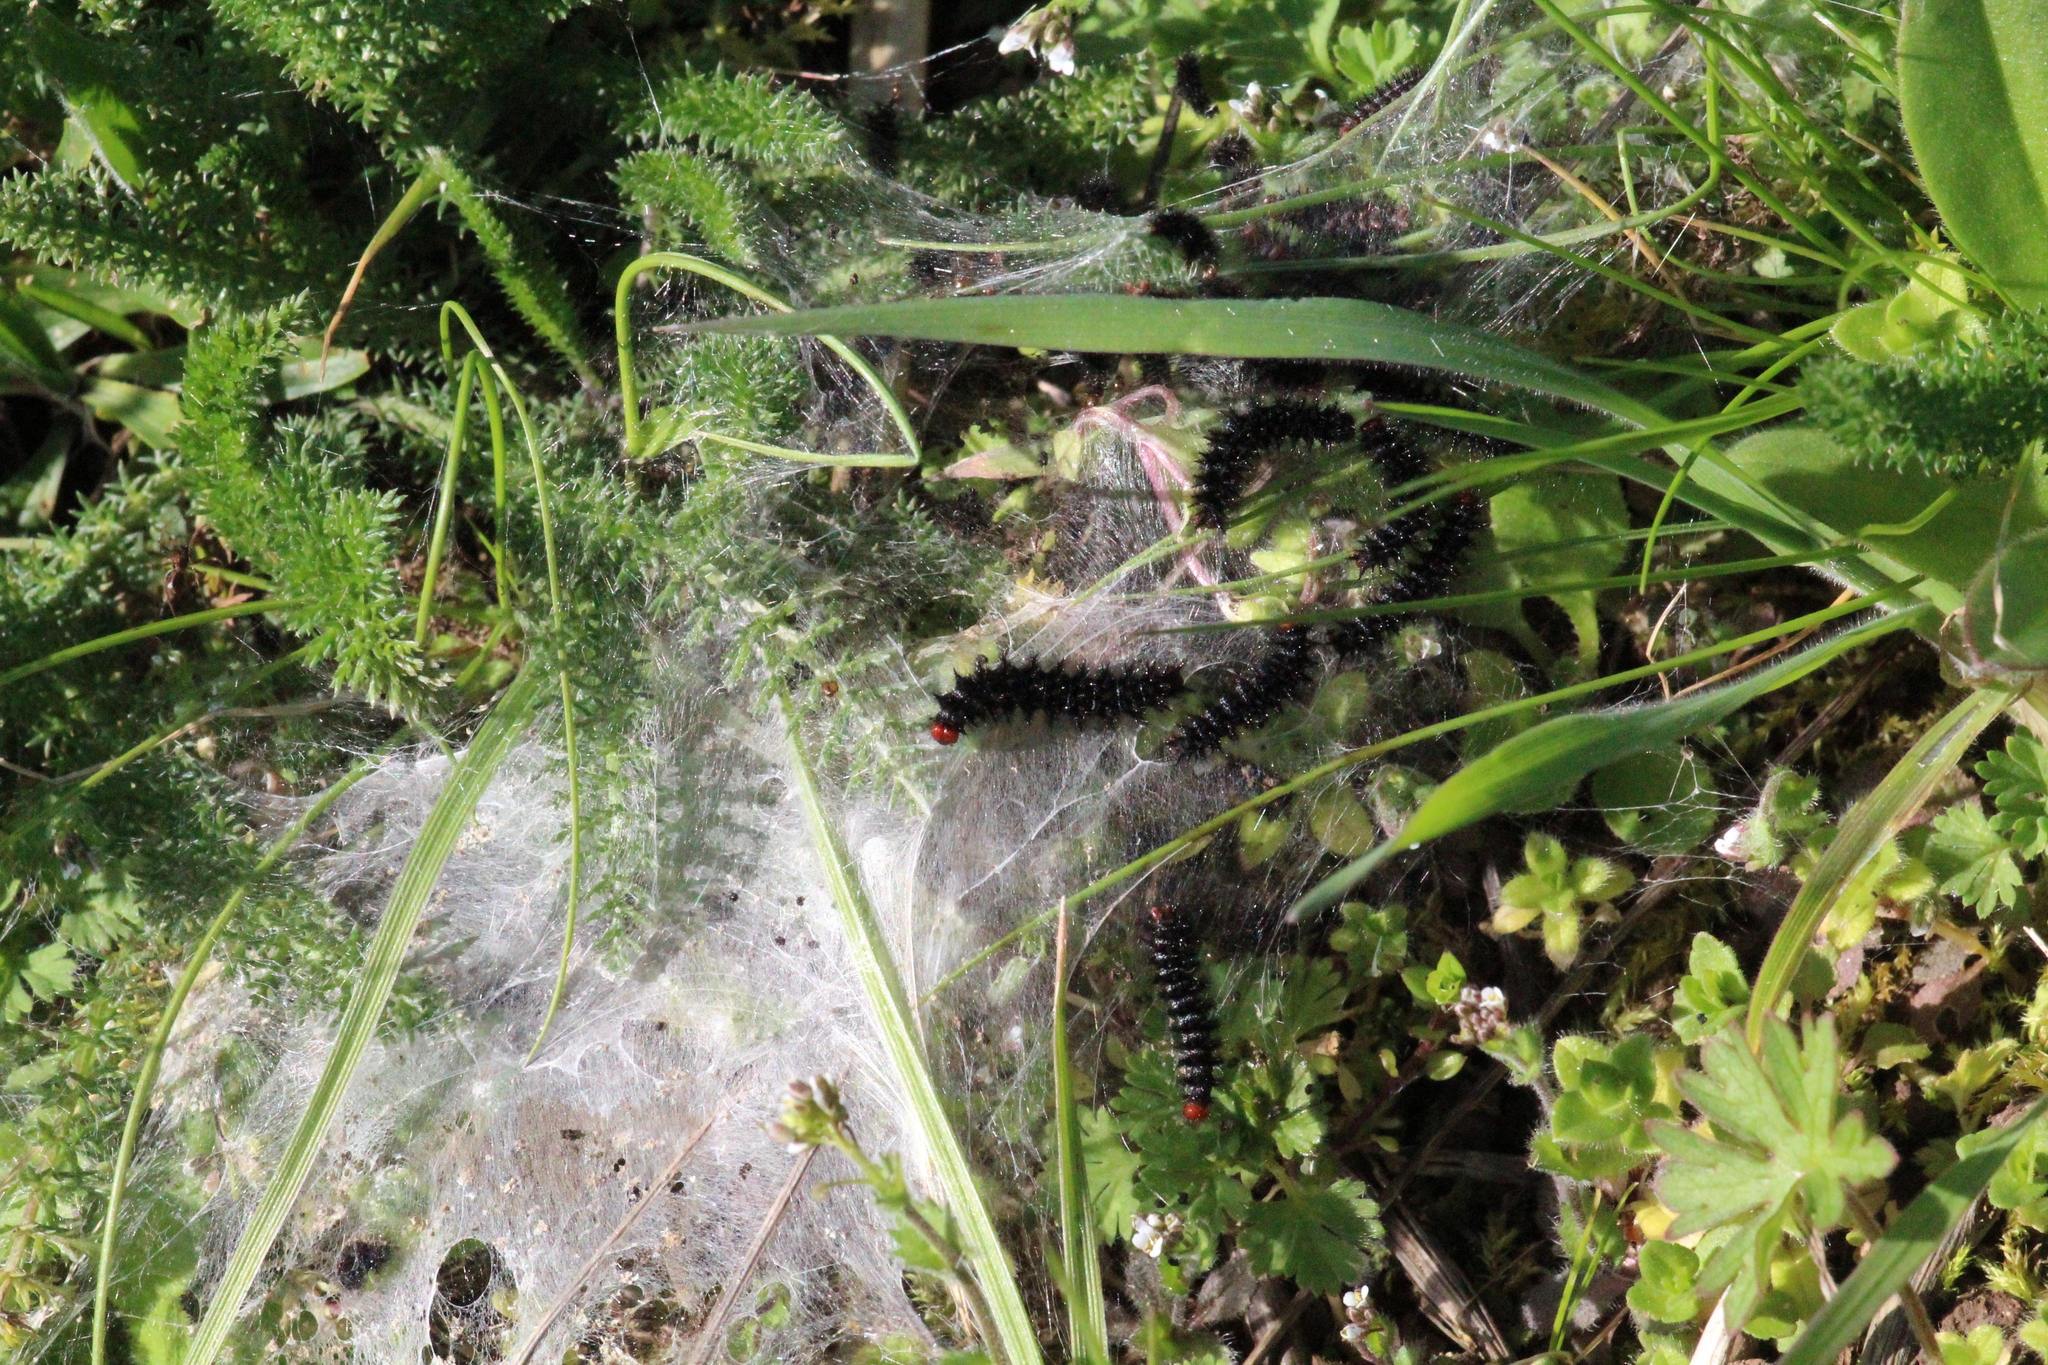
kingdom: Animalia
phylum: Arthropoda
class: Insecta
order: Lepidoptera
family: Nymphalidae
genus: Melitaea
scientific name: Melitaea cinxia
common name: Glanville fritillary
